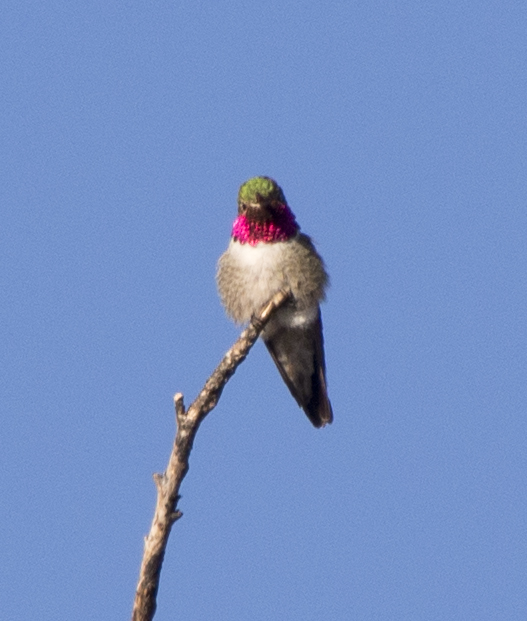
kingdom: Animalia
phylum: Chordata
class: Aves
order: Apodiformes
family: Trochilidae
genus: Selasphorus
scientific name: Selasphorus platycercus
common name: Broad-tailed hummingbird
